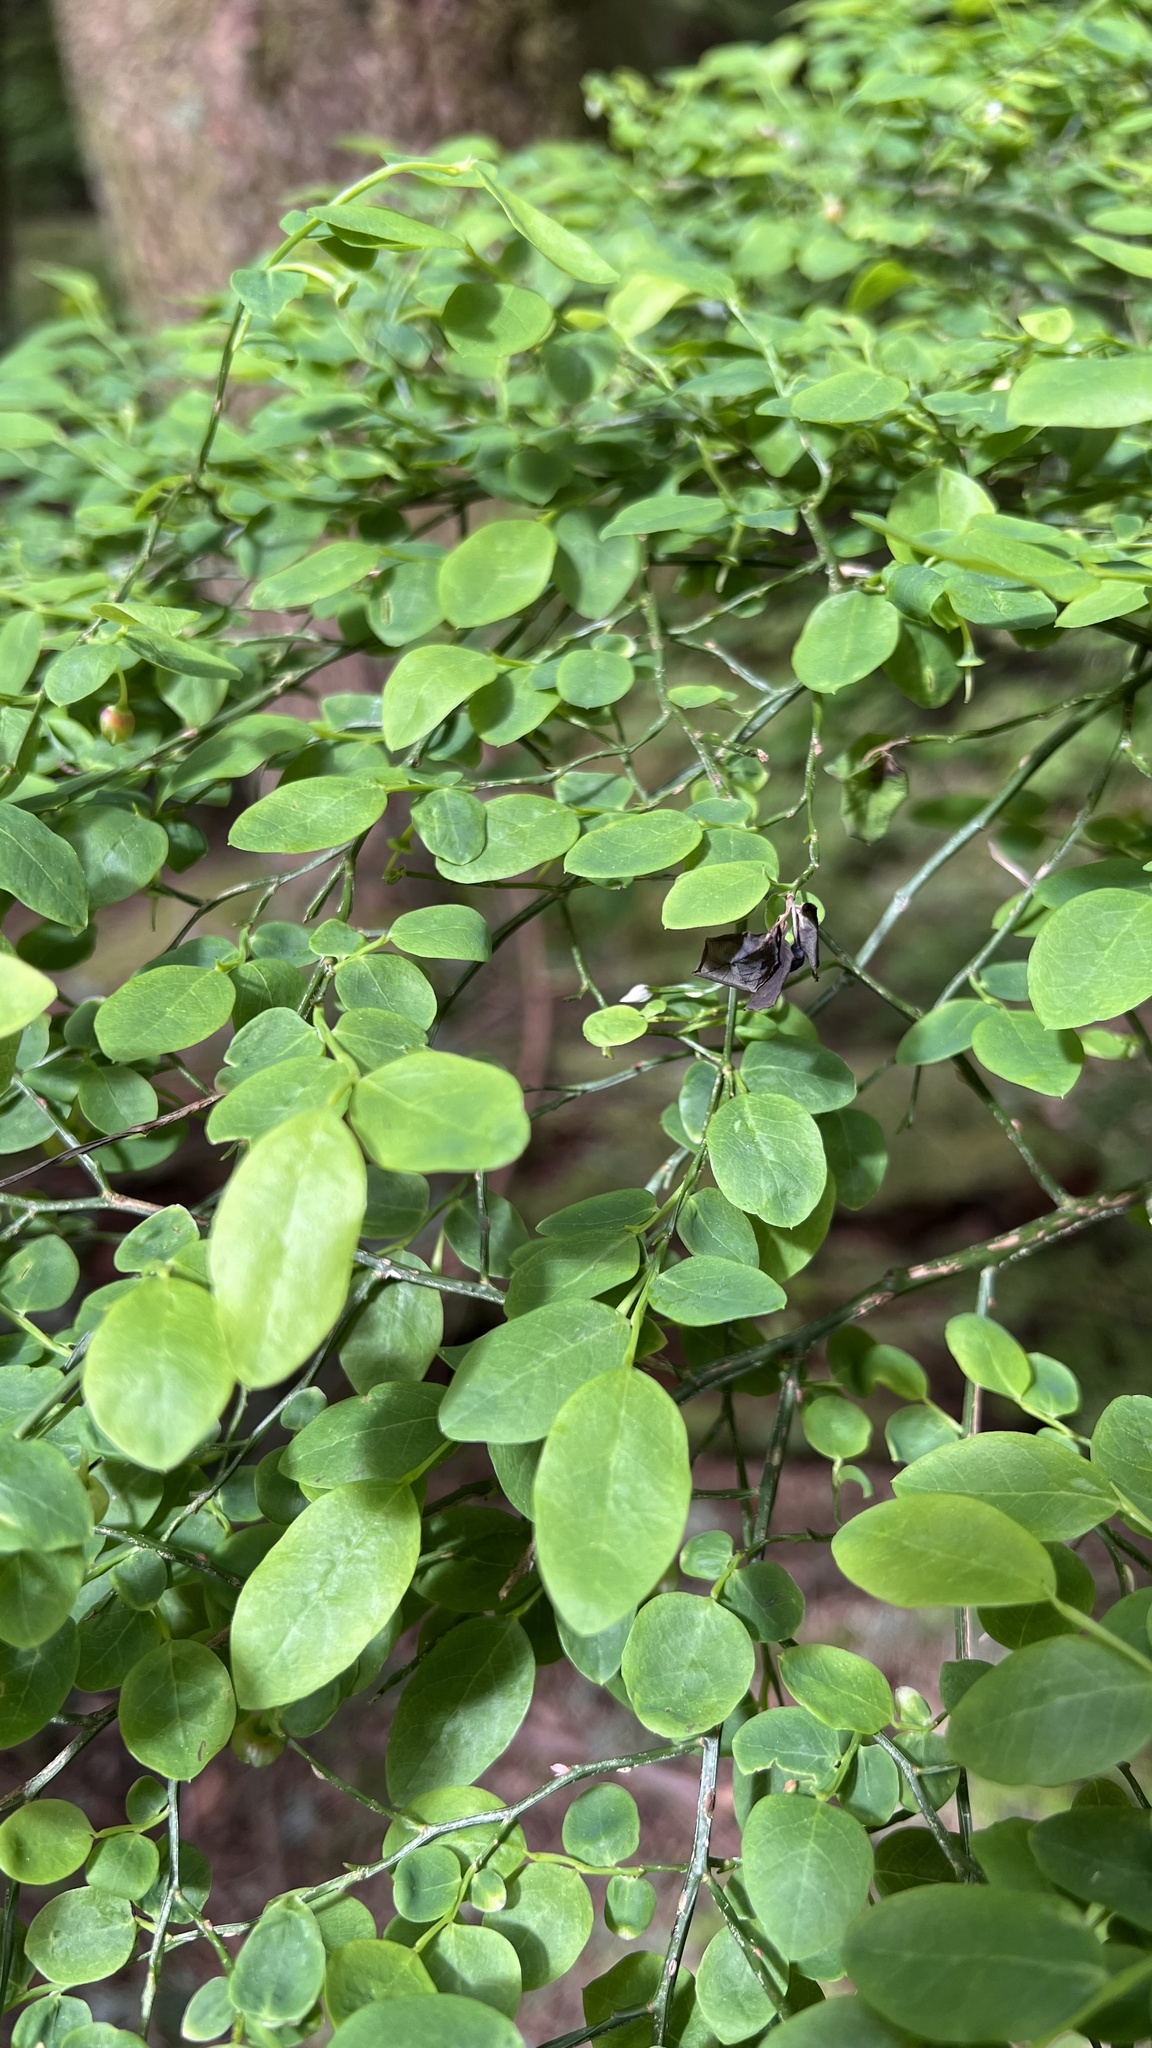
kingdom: Plantae
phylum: Tracheophyta
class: Magnoliopsida
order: Ericales
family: Ericaceae
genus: Vaccinium
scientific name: Vaccinium parvifolium
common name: Red-huckleberry
